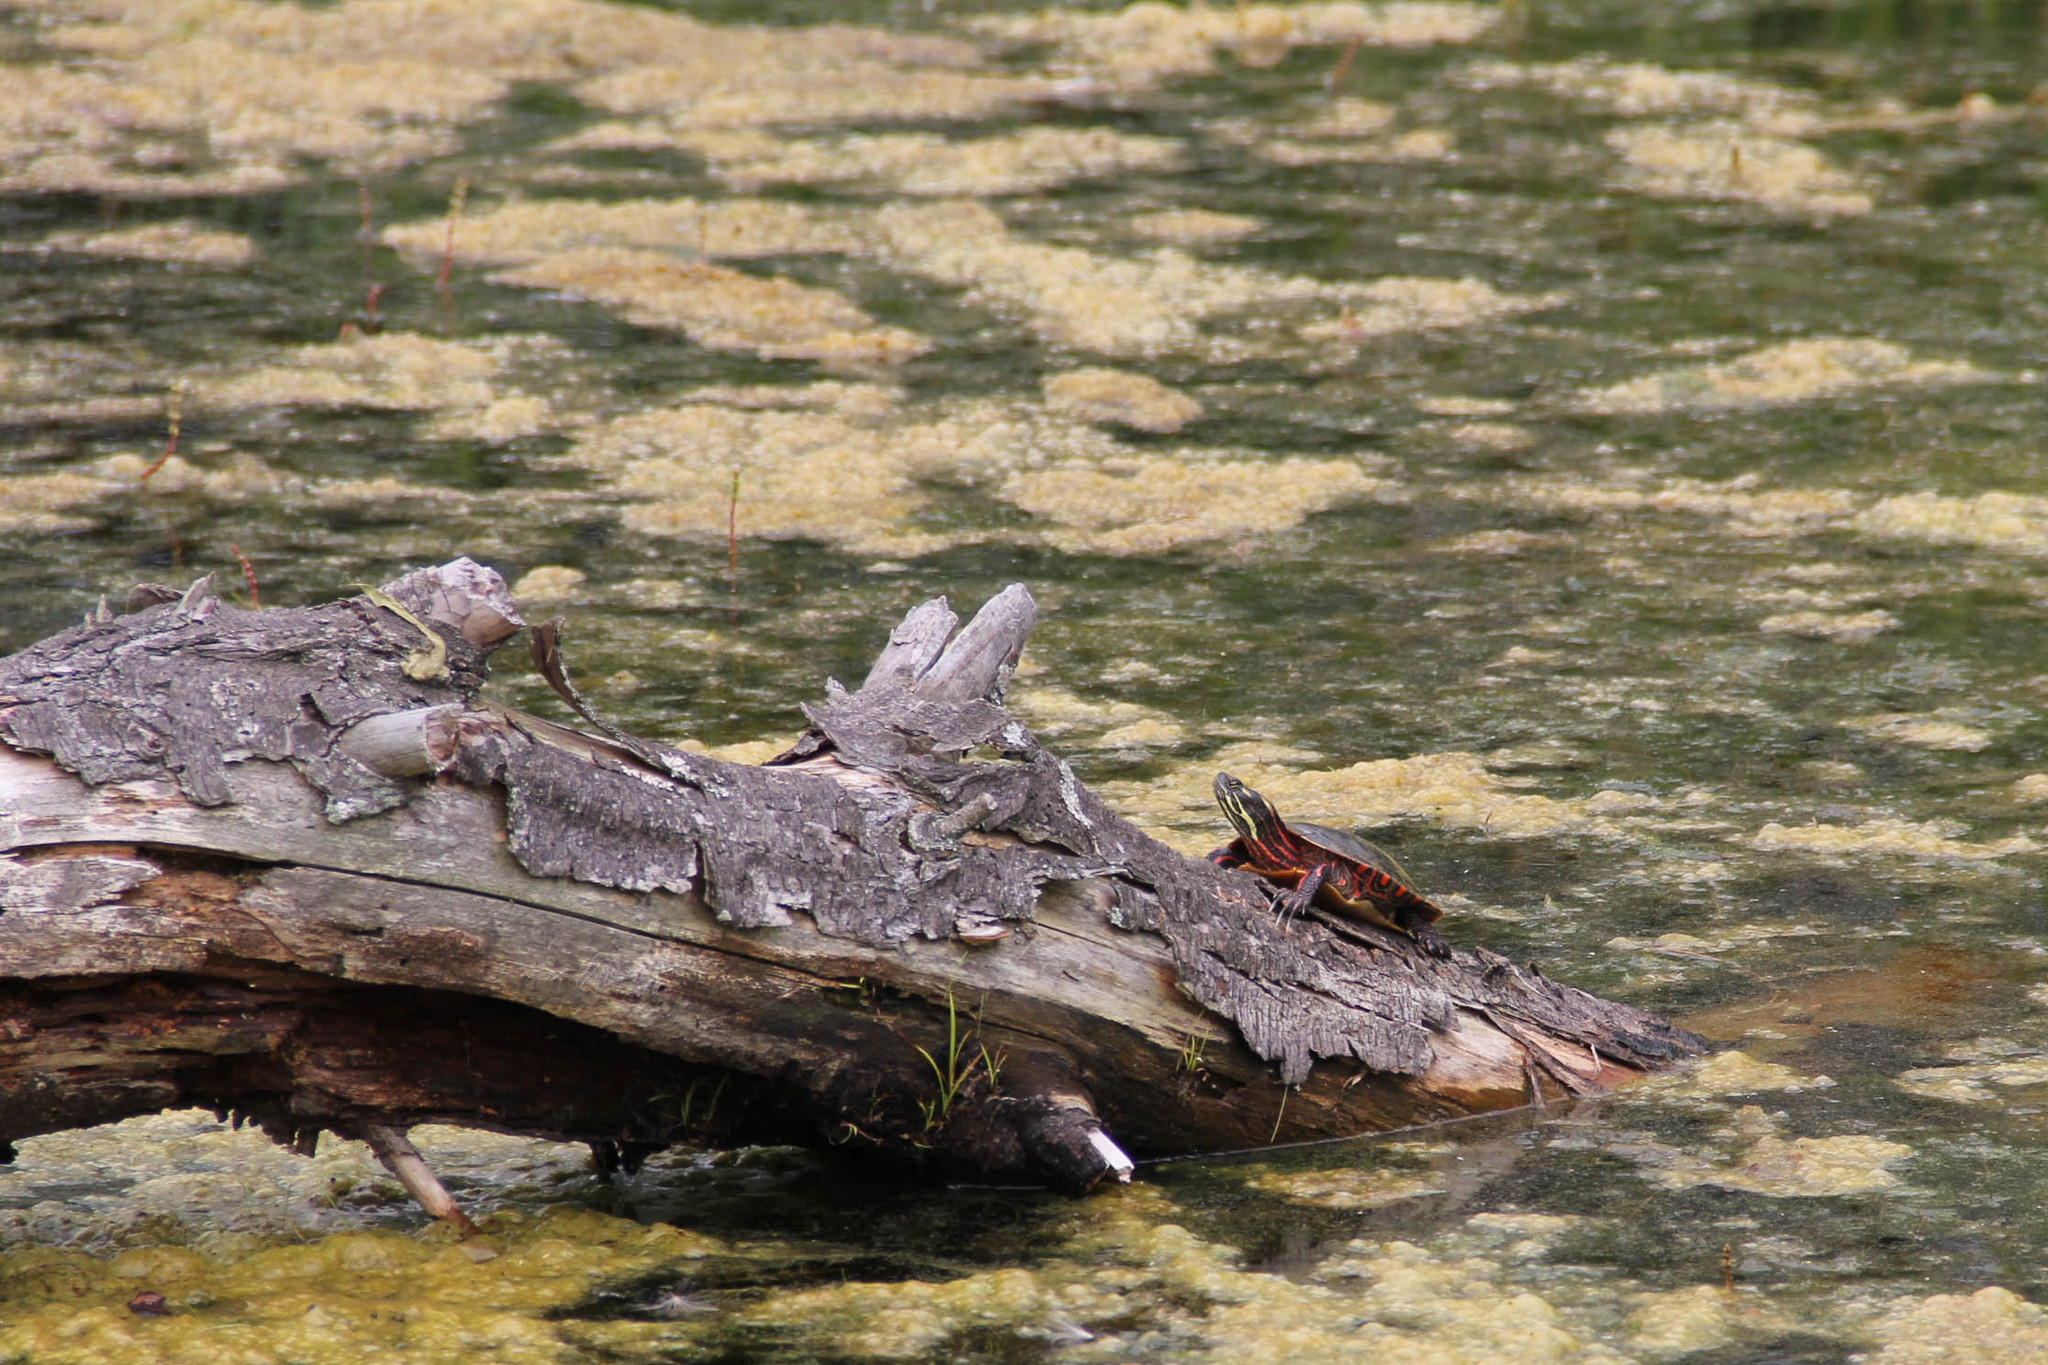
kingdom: Animalia
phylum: Chordata
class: Testudines
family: Emydidae
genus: Chrysemys
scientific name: Chrysemys picta
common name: Painted turtle
